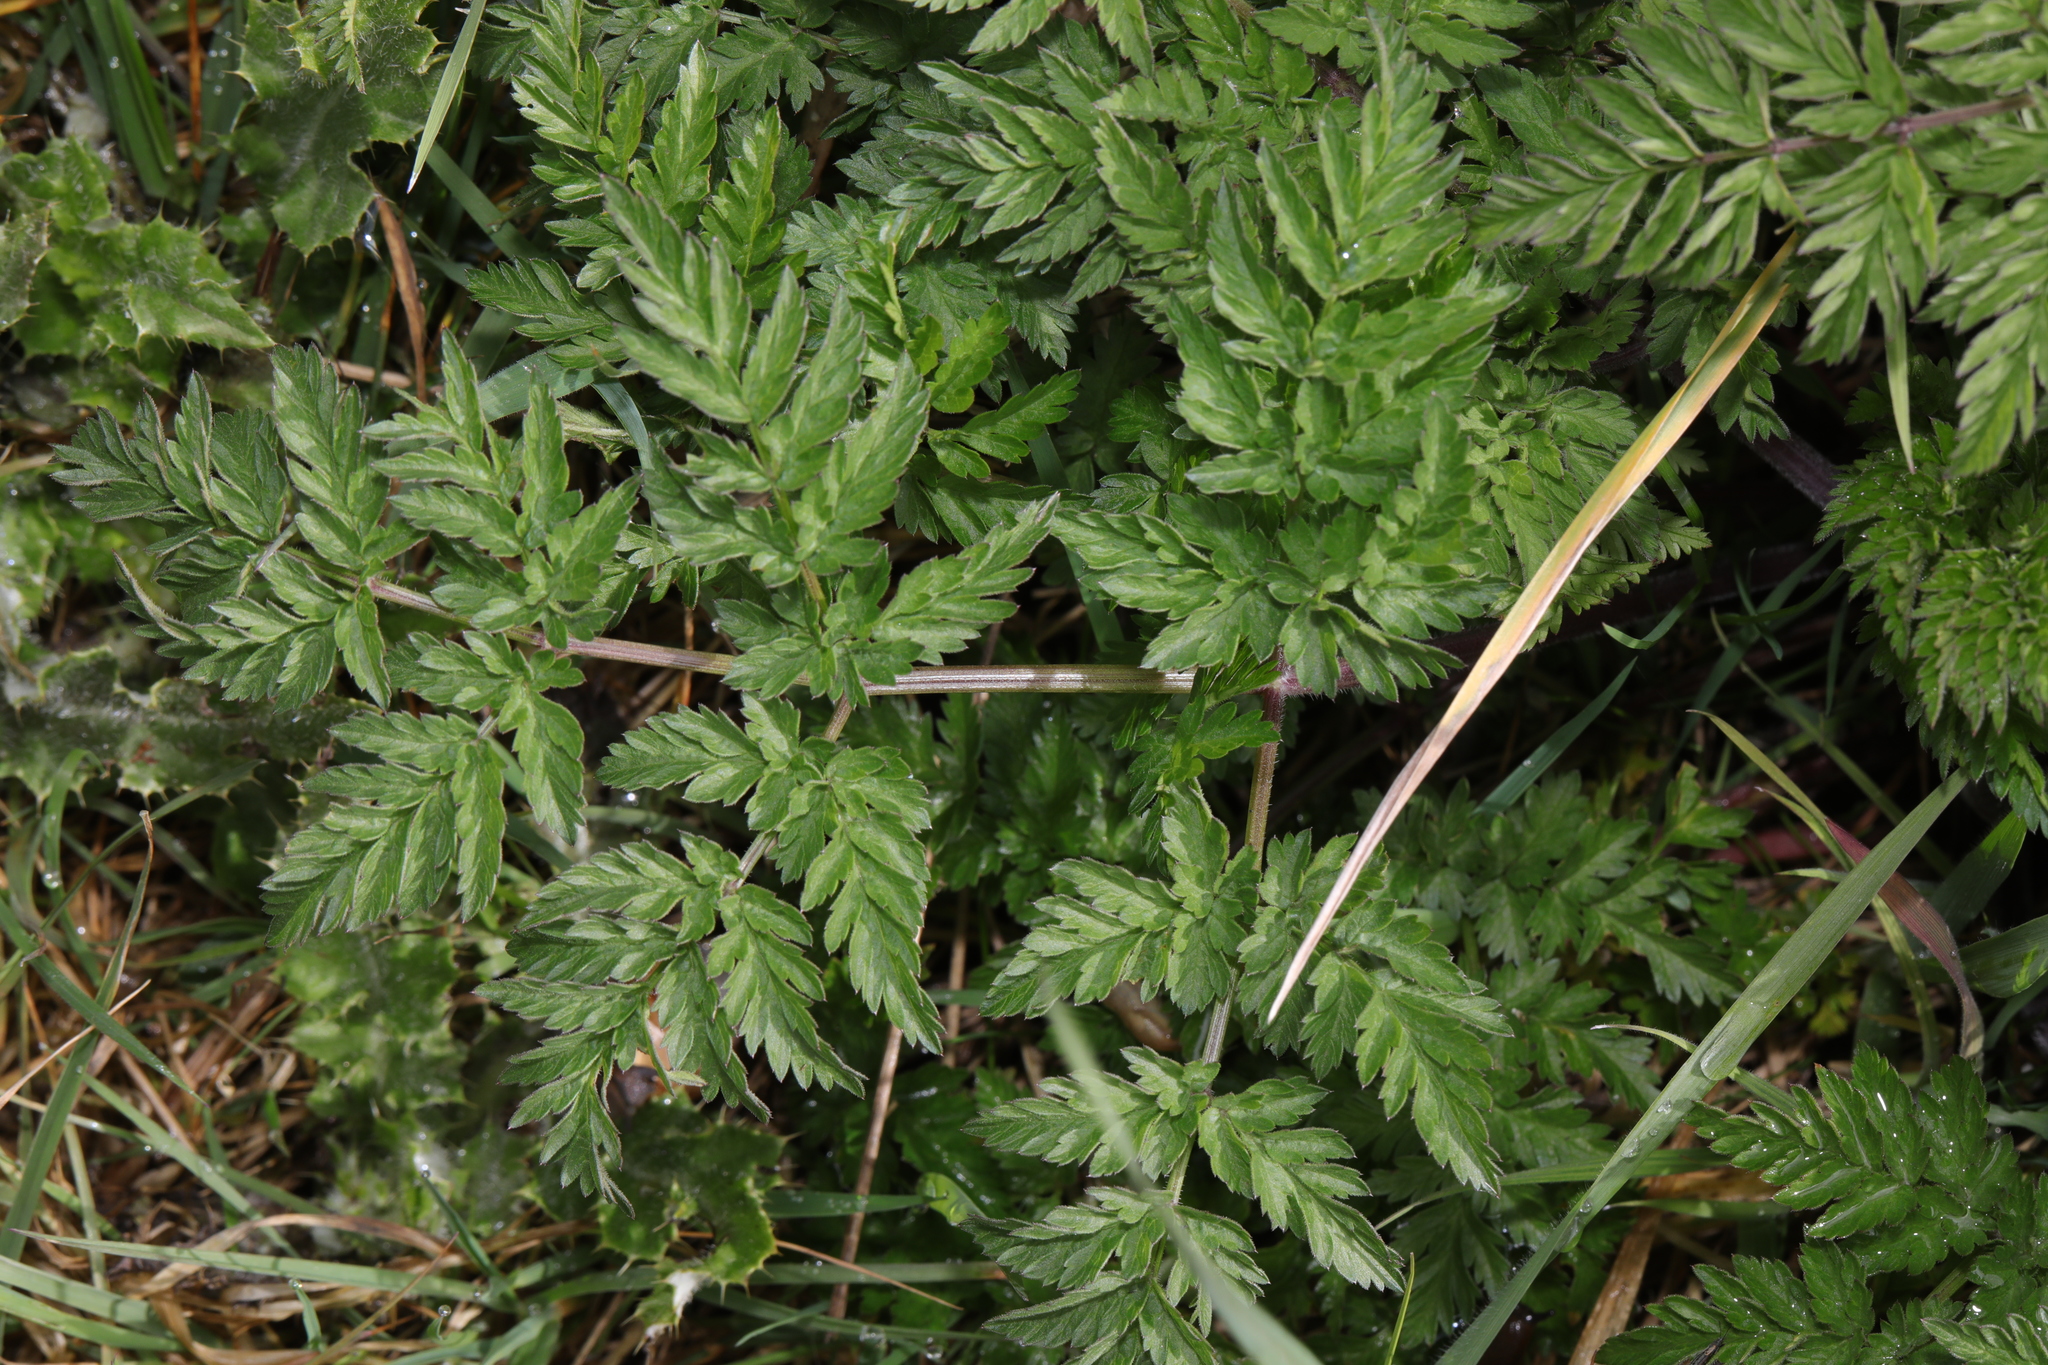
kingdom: Plantae
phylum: Tracheophyta
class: Magnoliopsida
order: Apiales
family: Apiaceae
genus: Anthriscus
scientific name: Anthriscus sylvestris
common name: Cow parsley
